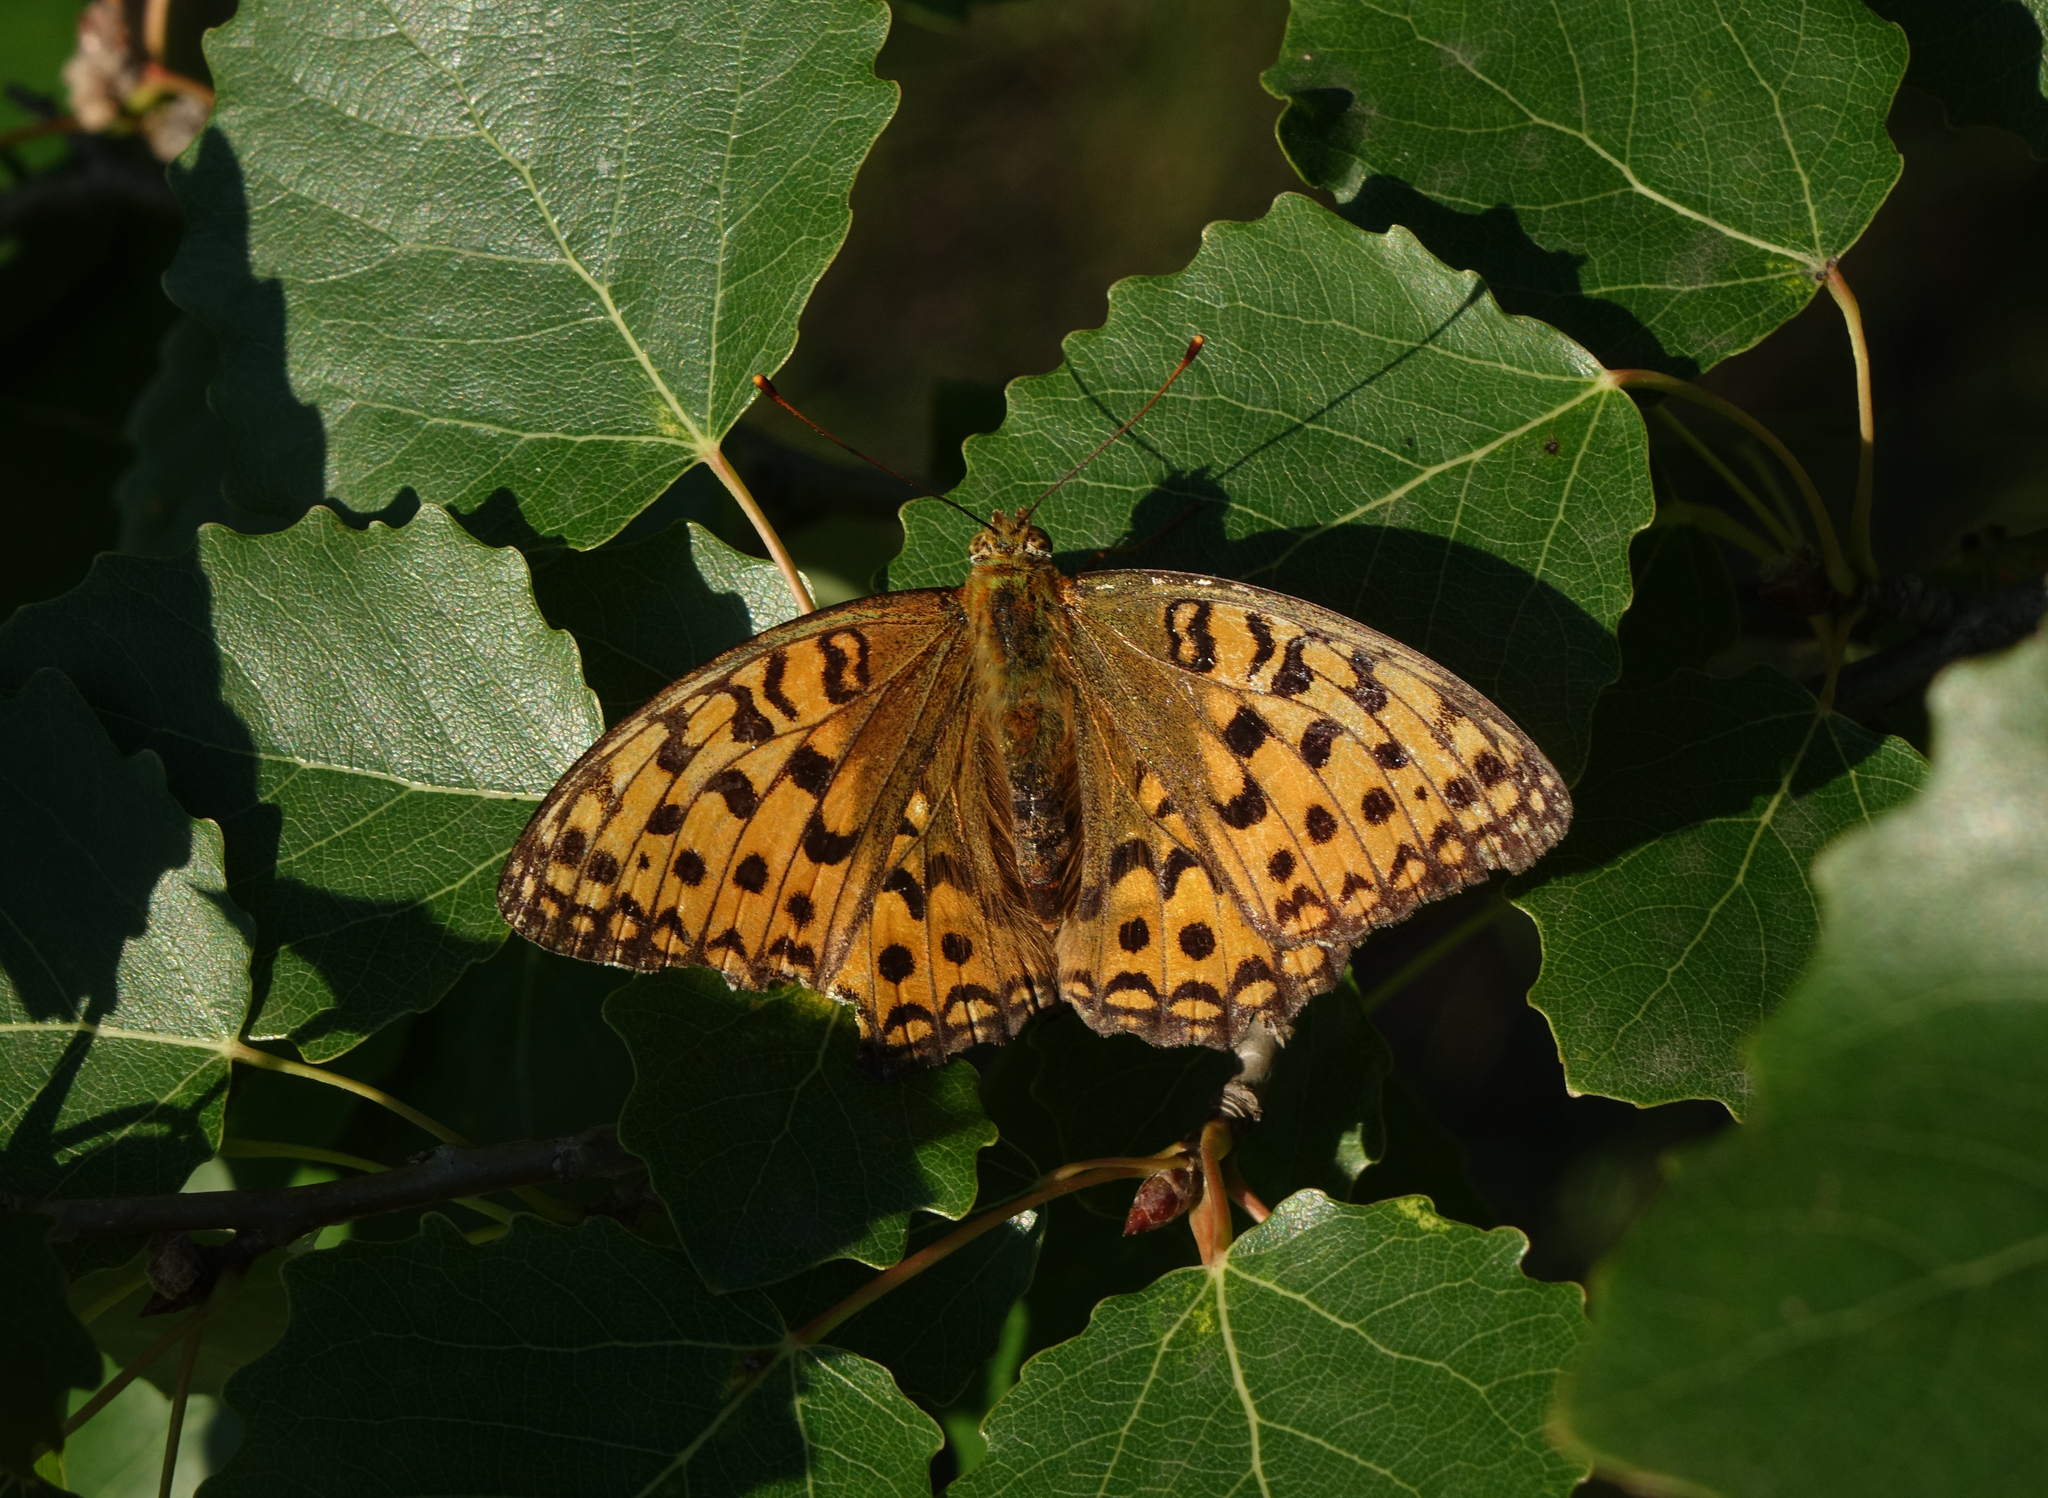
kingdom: Plantae
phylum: Tracheophyta
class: Magnoliopsida
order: Malpighiales
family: Salicaceae
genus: Populus
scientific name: Populus tremula
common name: European aspen
